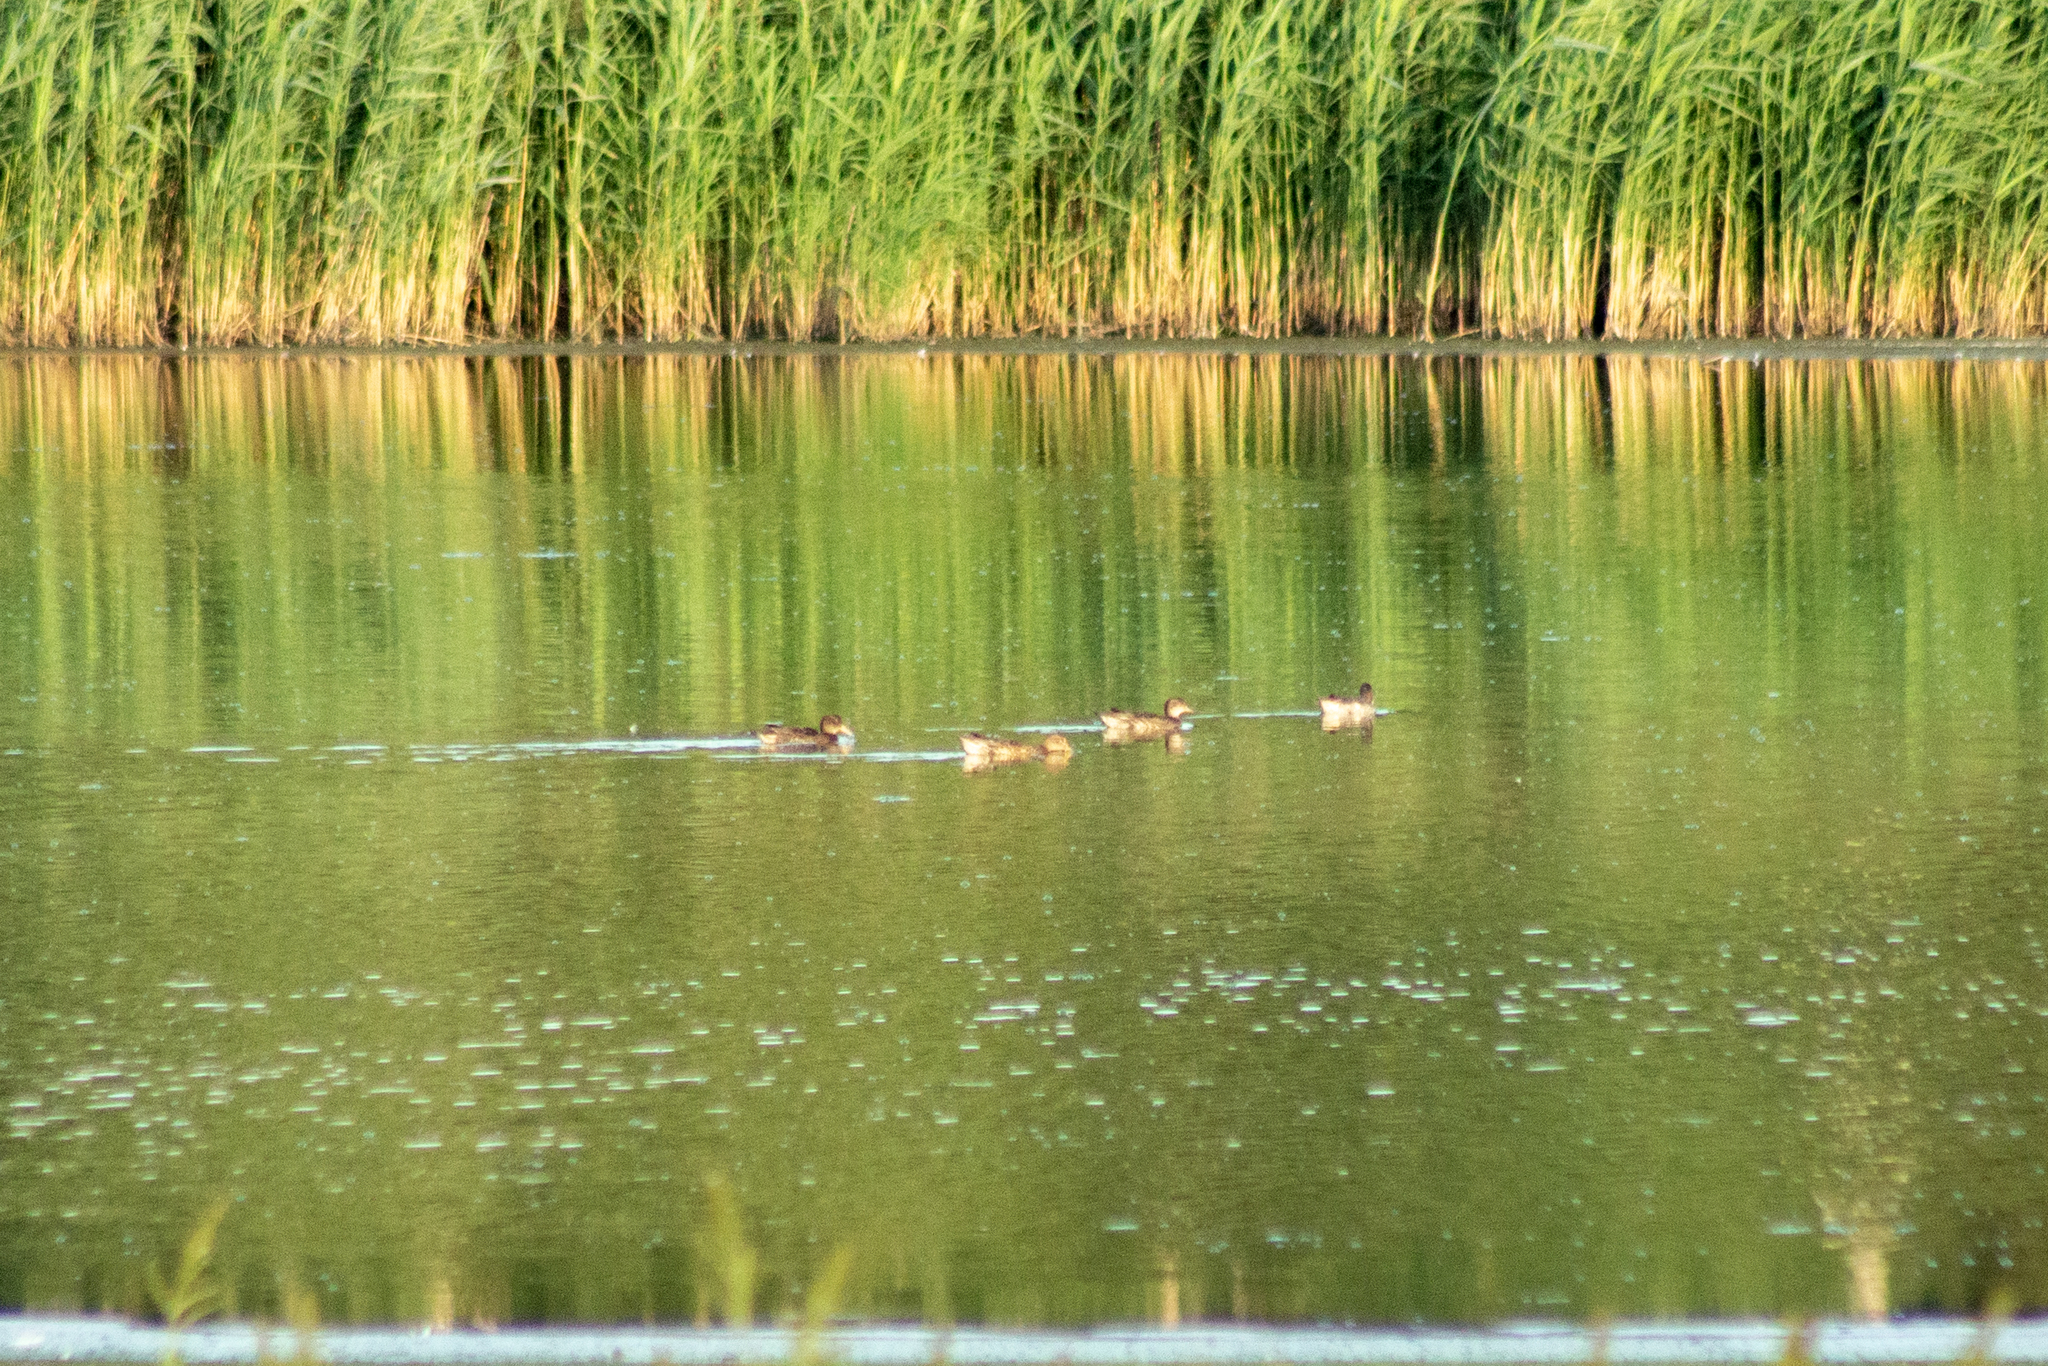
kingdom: Animalia
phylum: Chordata
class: Aves
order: Anseriformes
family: Anatidae
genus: Anas
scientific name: Anas crecca
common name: Eurasian teal
